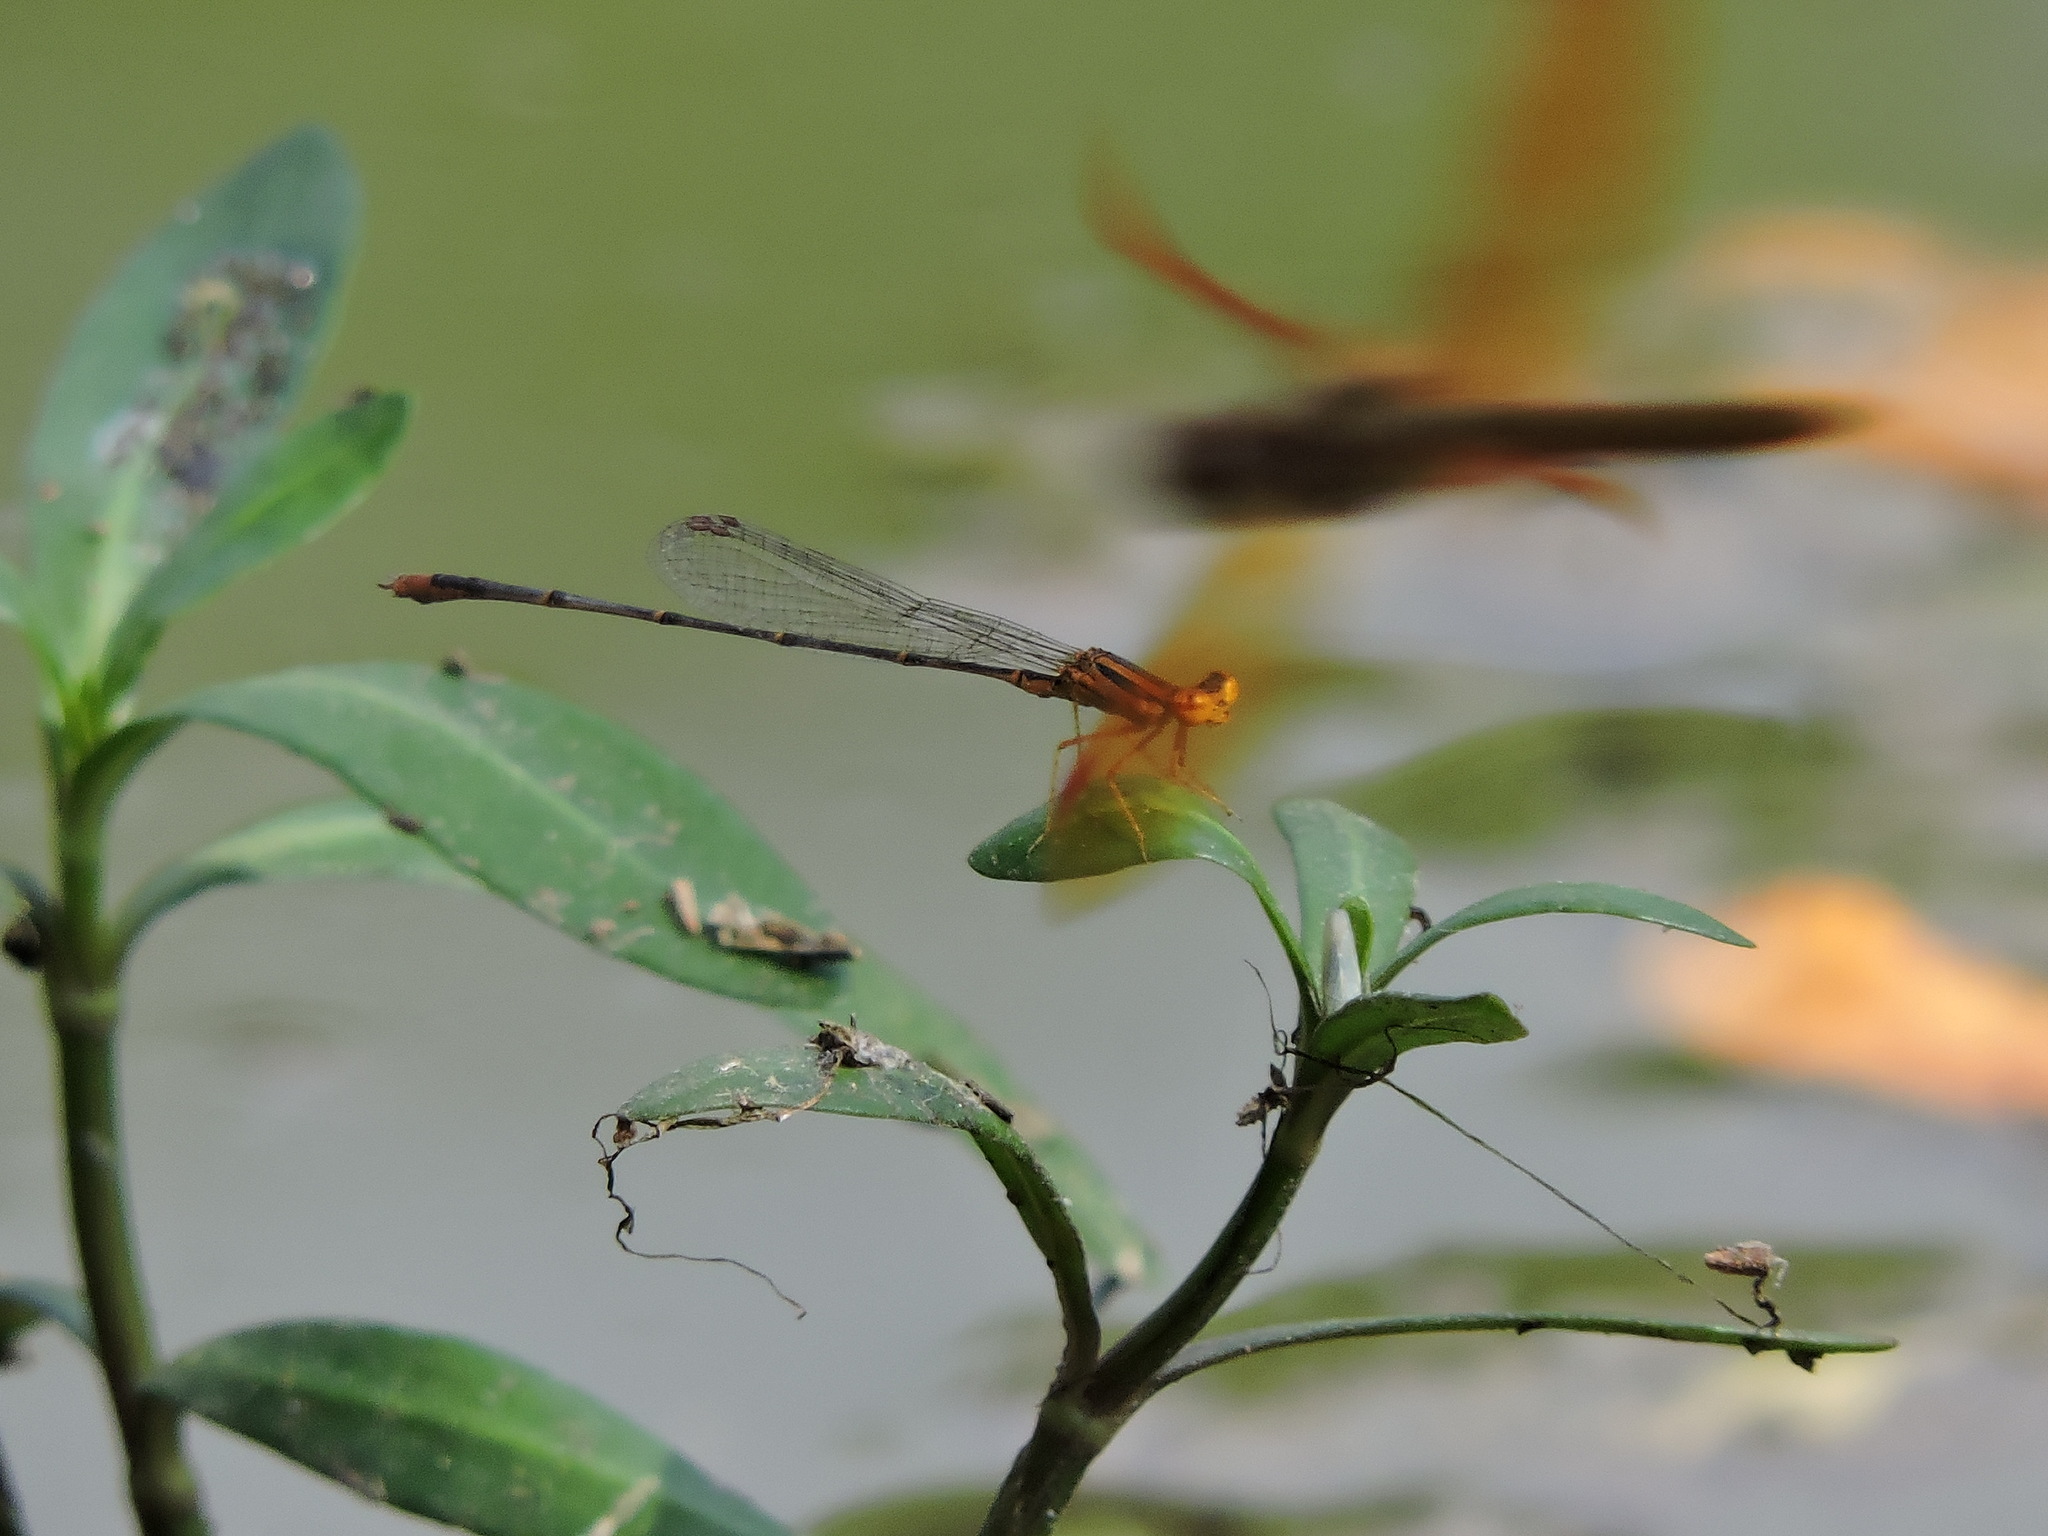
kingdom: Animalia
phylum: Arthropoda
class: Insecta
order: Odonata
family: Coenagrionidae
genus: Enallagma
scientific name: Enallagma signatum
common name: Orange bluet
